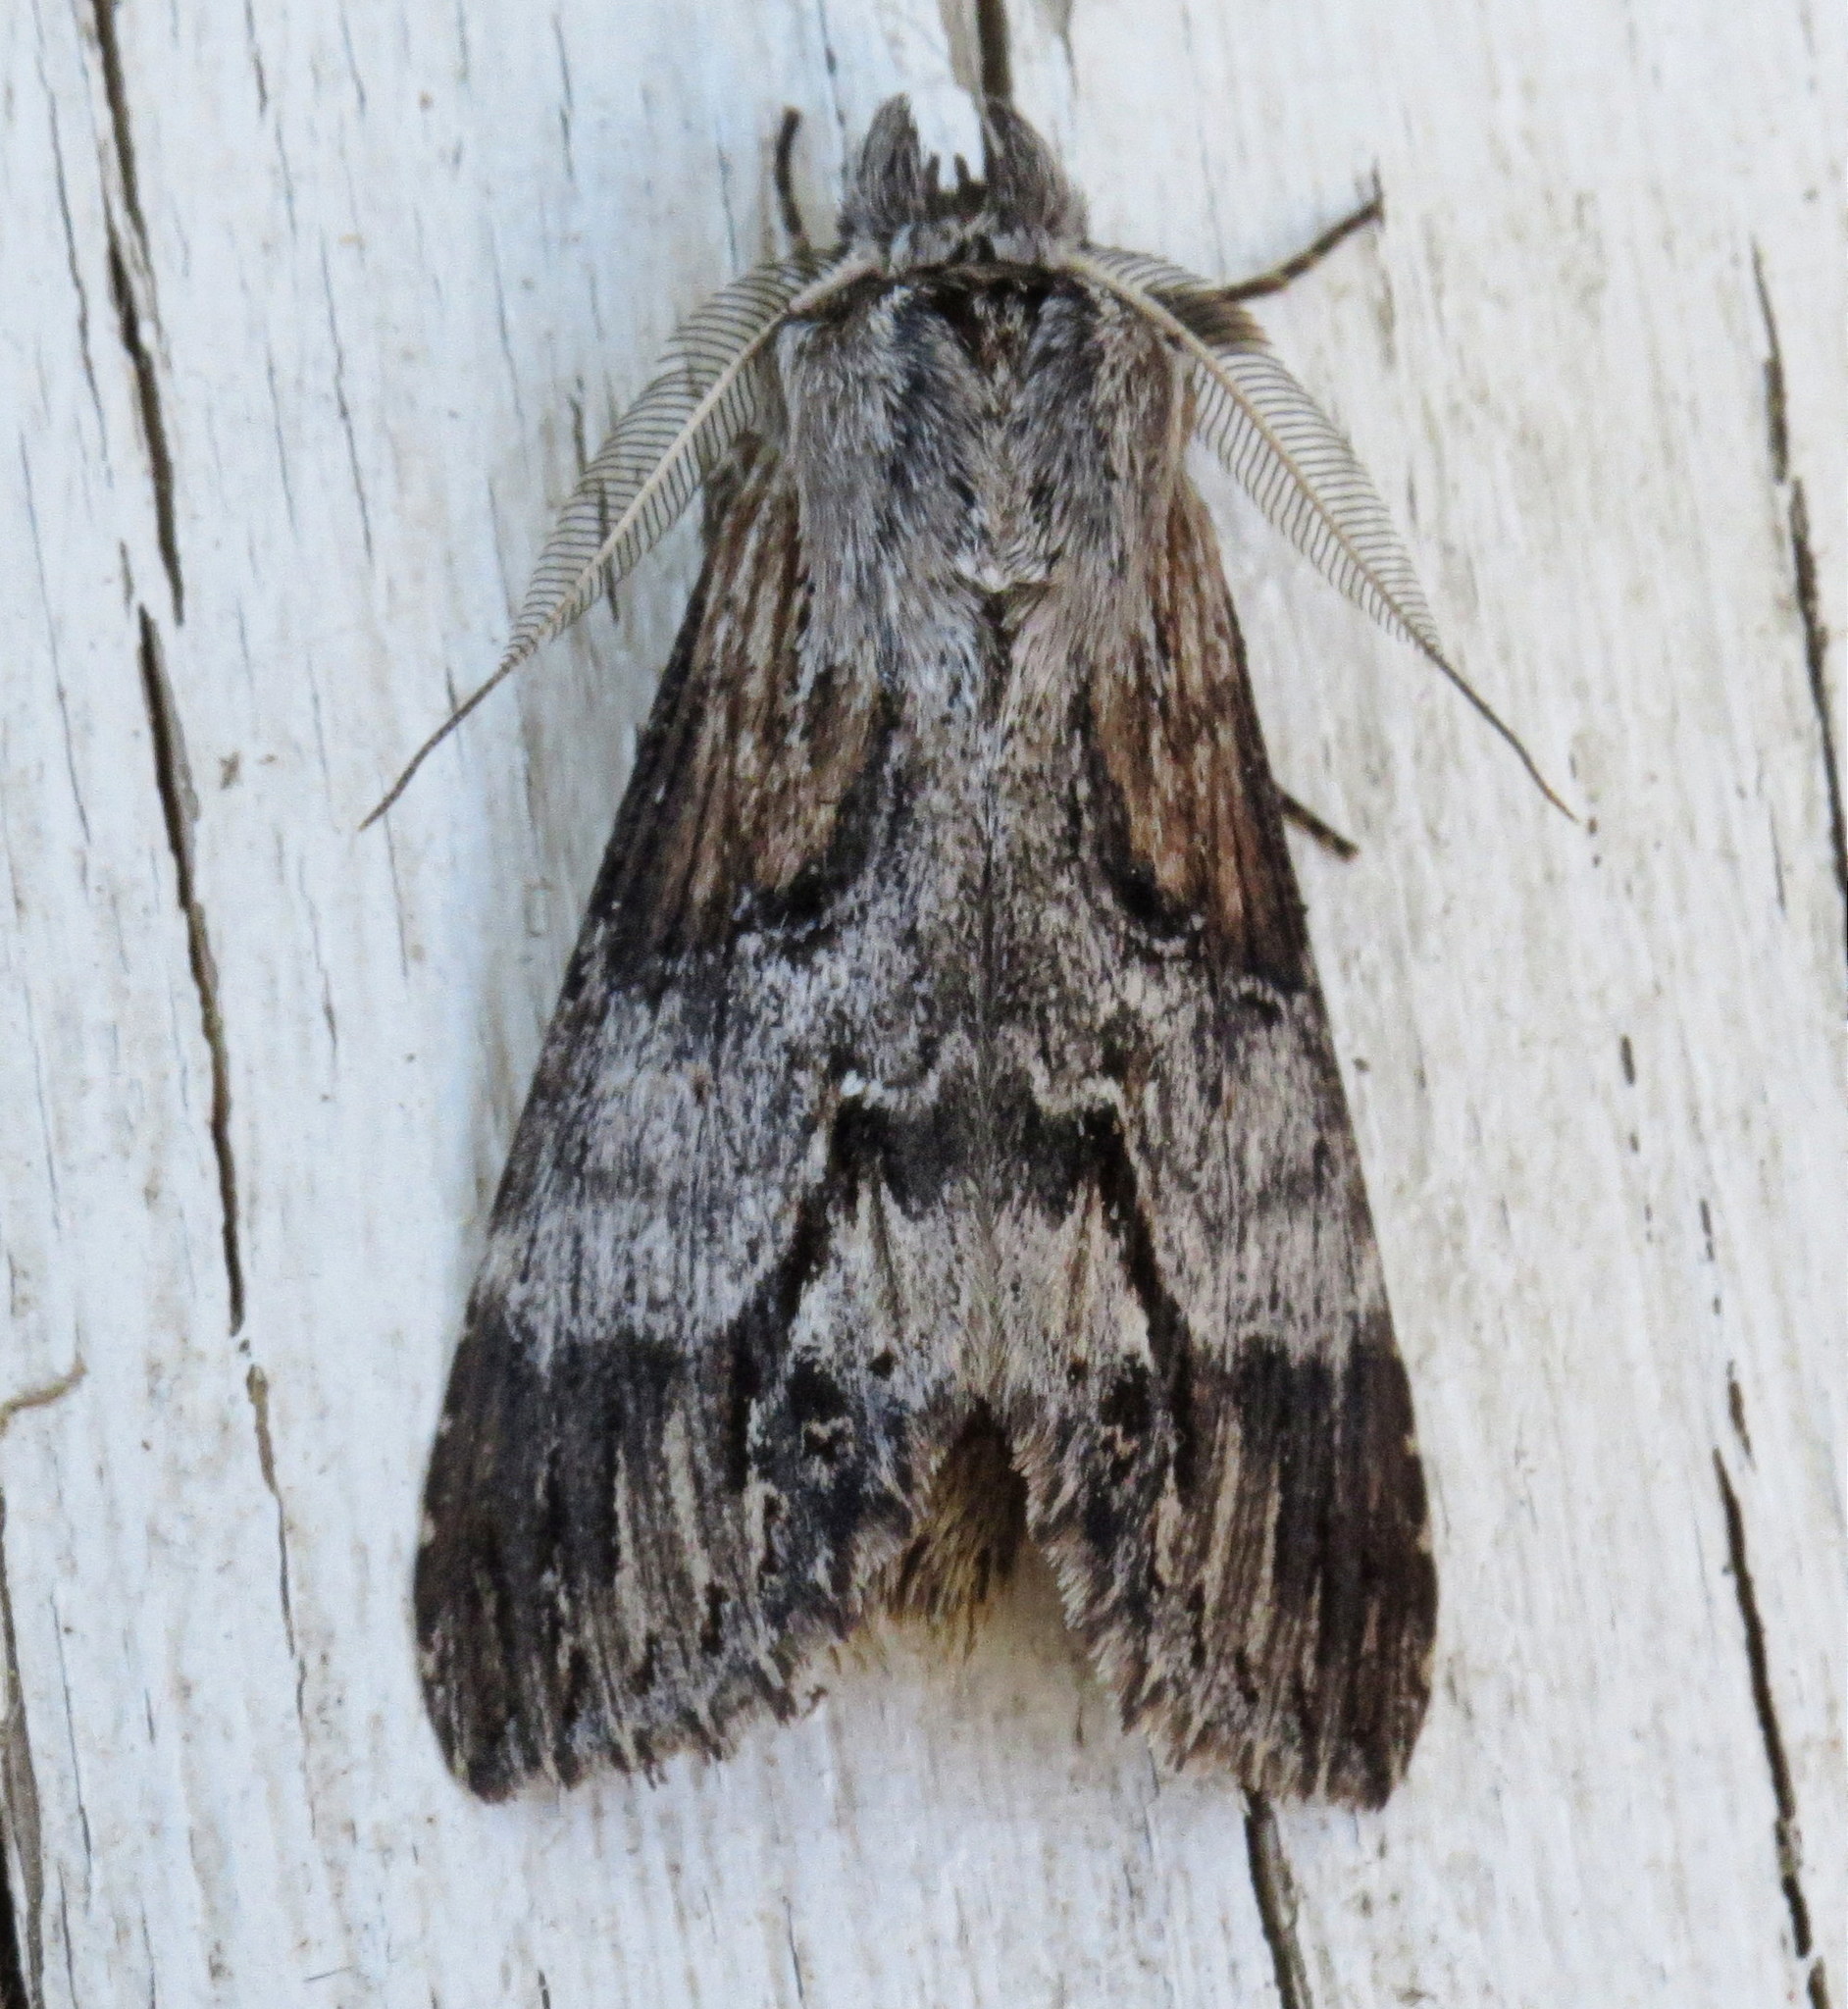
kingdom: Animalia
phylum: Arthropoda
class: Insecta
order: Lepidoptera
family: Notodontidae
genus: Dasylophia
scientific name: Dasylophia thyatiroides
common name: Gray-patched prominent
